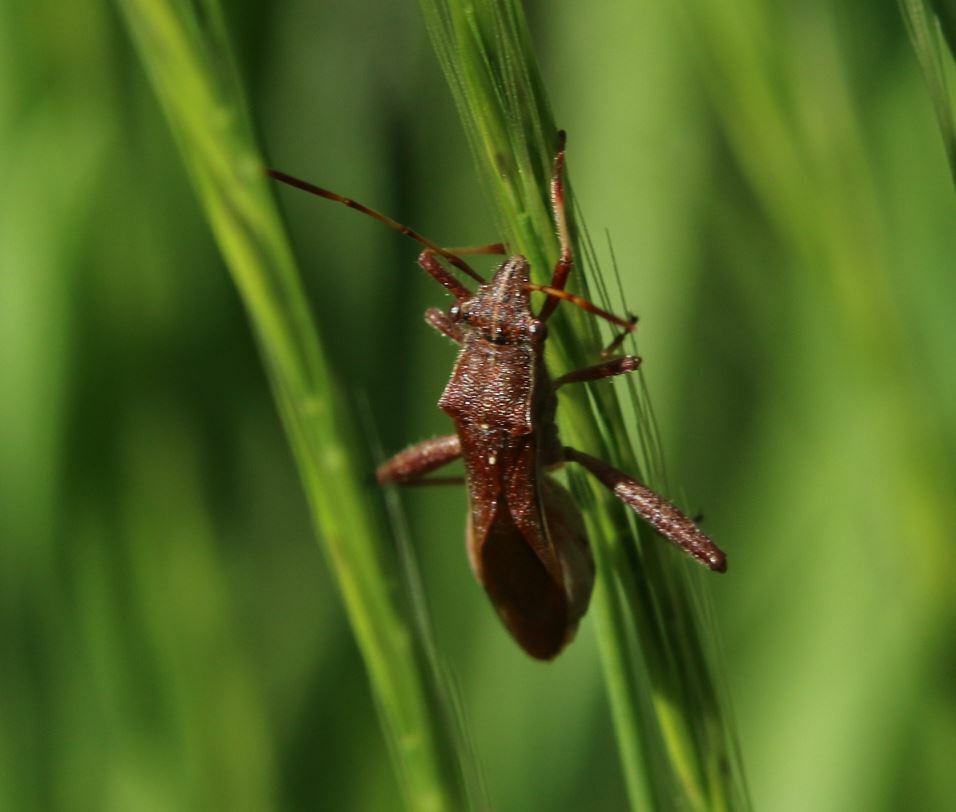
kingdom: Animalia
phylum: Arthropoda
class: Insecta
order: Hemiptera
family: Alydidae
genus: Camptopus
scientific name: Camptopus lateralis
